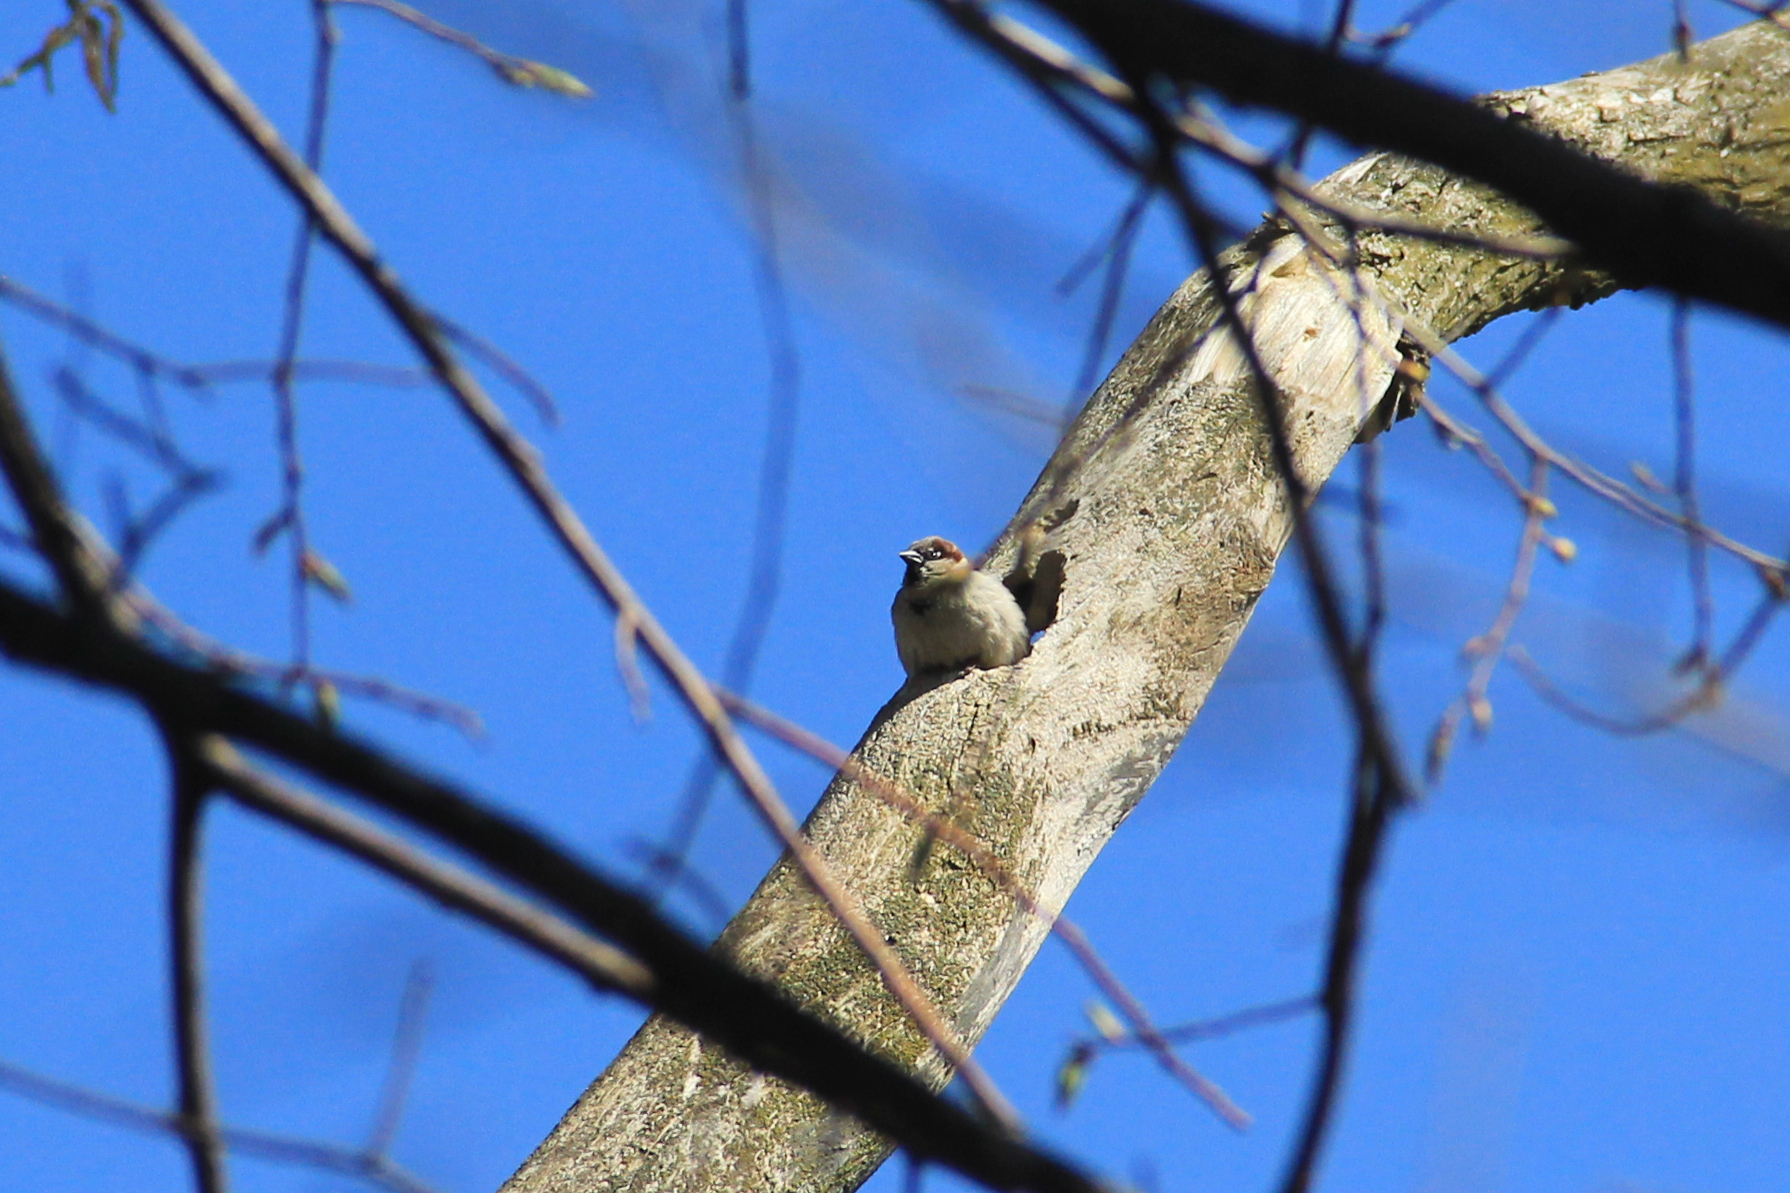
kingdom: Animalia
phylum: Chordata
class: Aves
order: Passeriformes
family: Passeridae
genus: Passer
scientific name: Passer domesticus
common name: House sparrow
